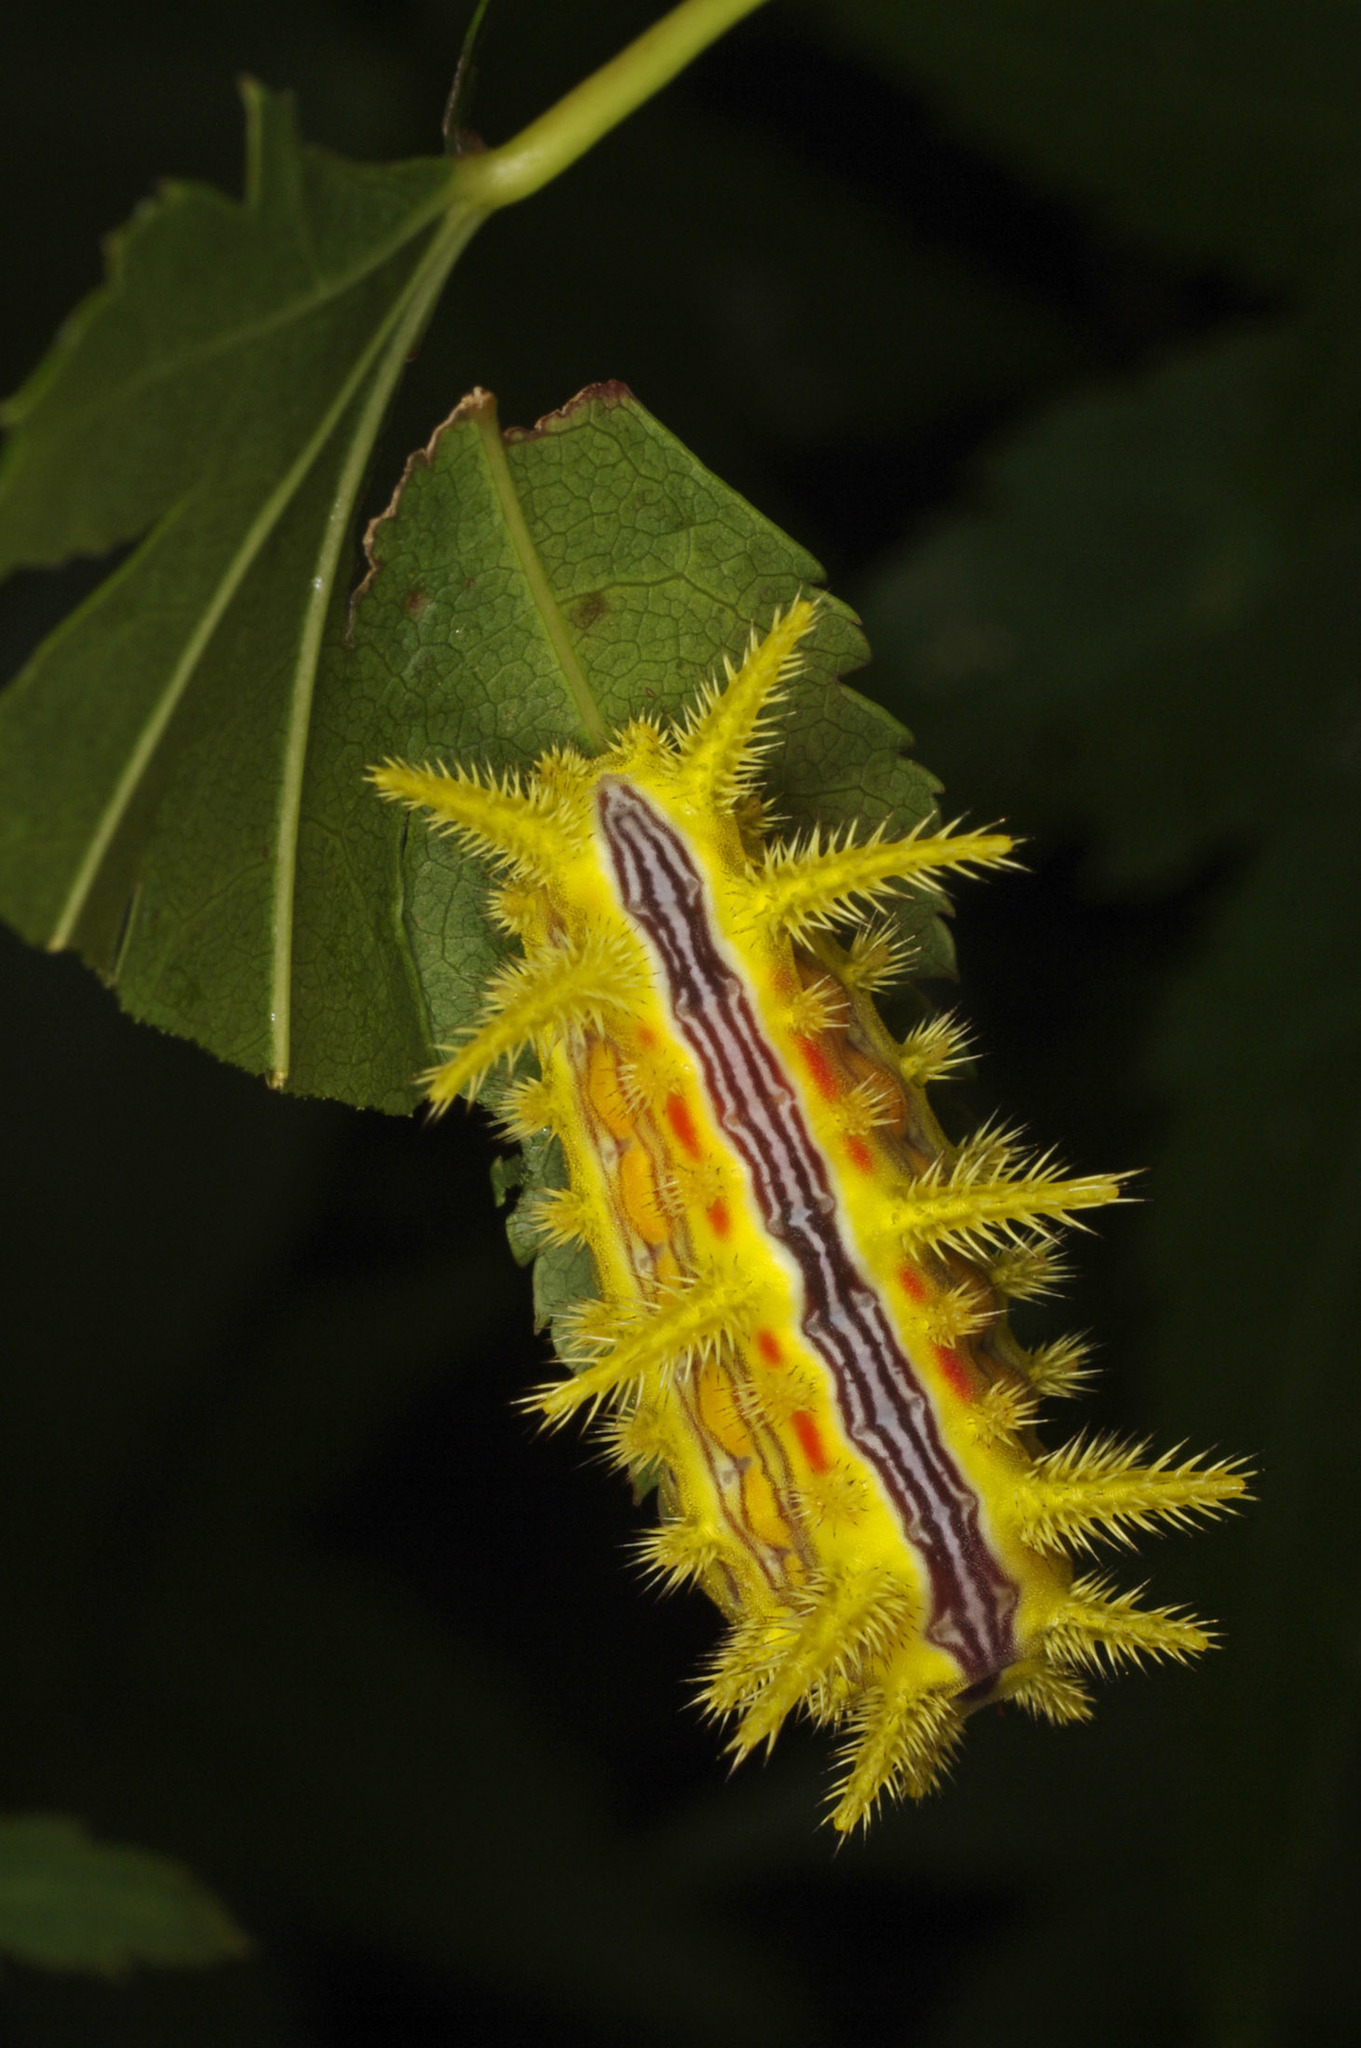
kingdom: Animalia
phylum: Arthropoda
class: Insecta
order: Lepidoptera
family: Limacodidae
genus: Parasa
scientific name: Parasa indetermina
